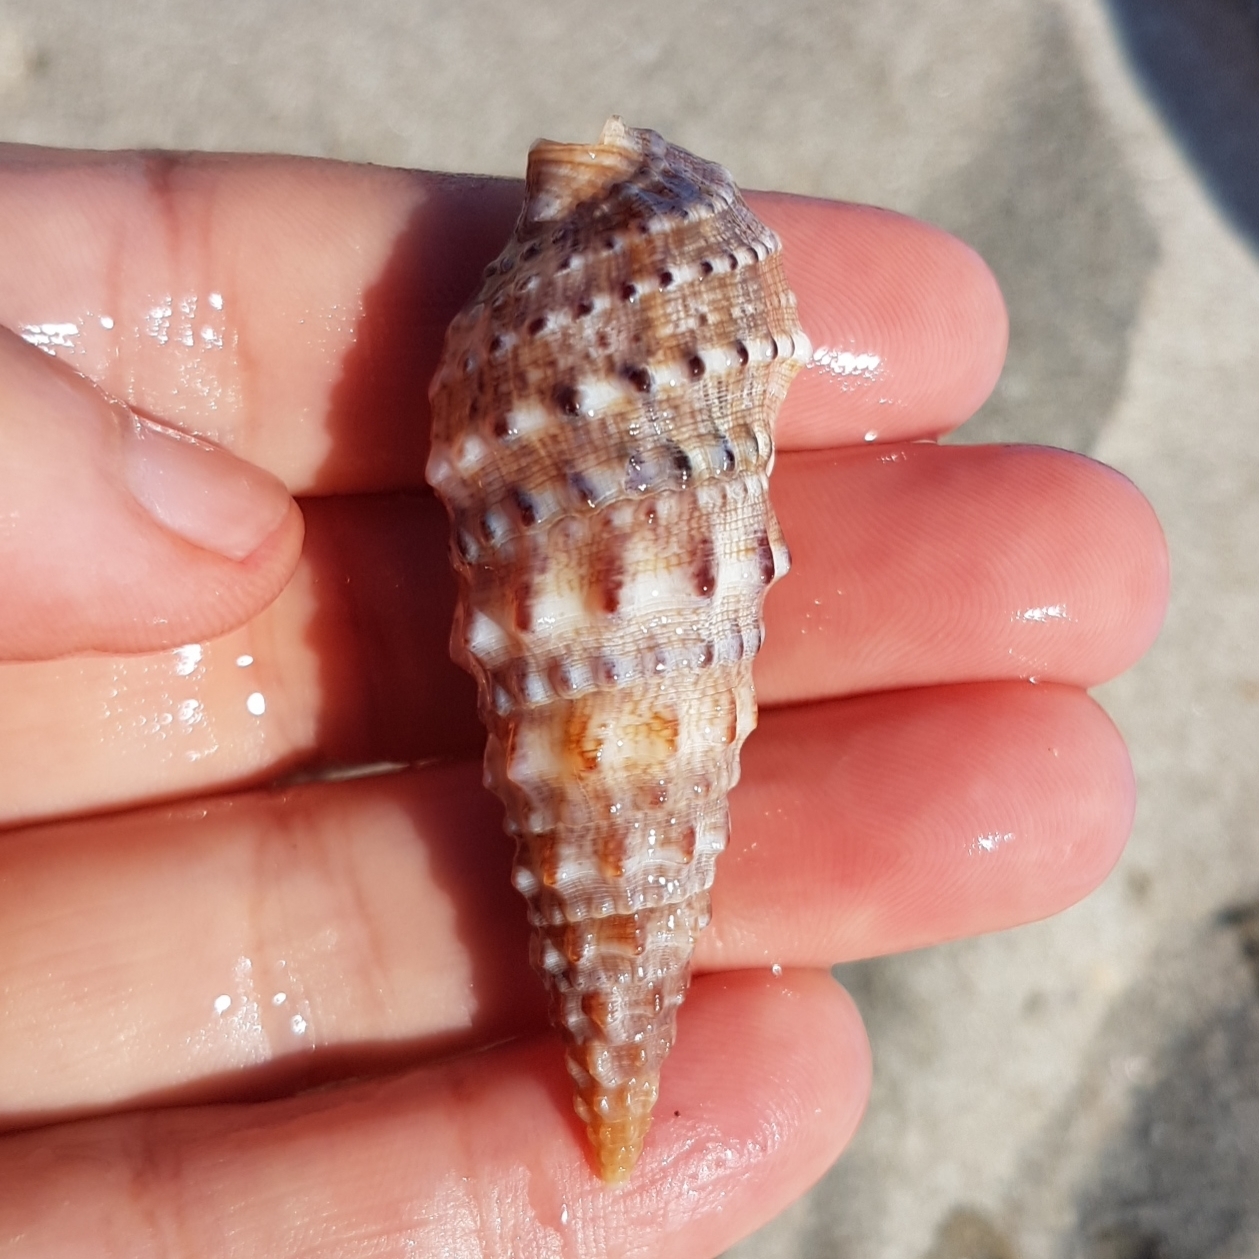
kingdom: Animalia
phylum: Mollusca
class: Gastropoda
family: Cerithiidae
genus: Cerithium
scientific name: Cerithium vulgatum
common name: European cerith
